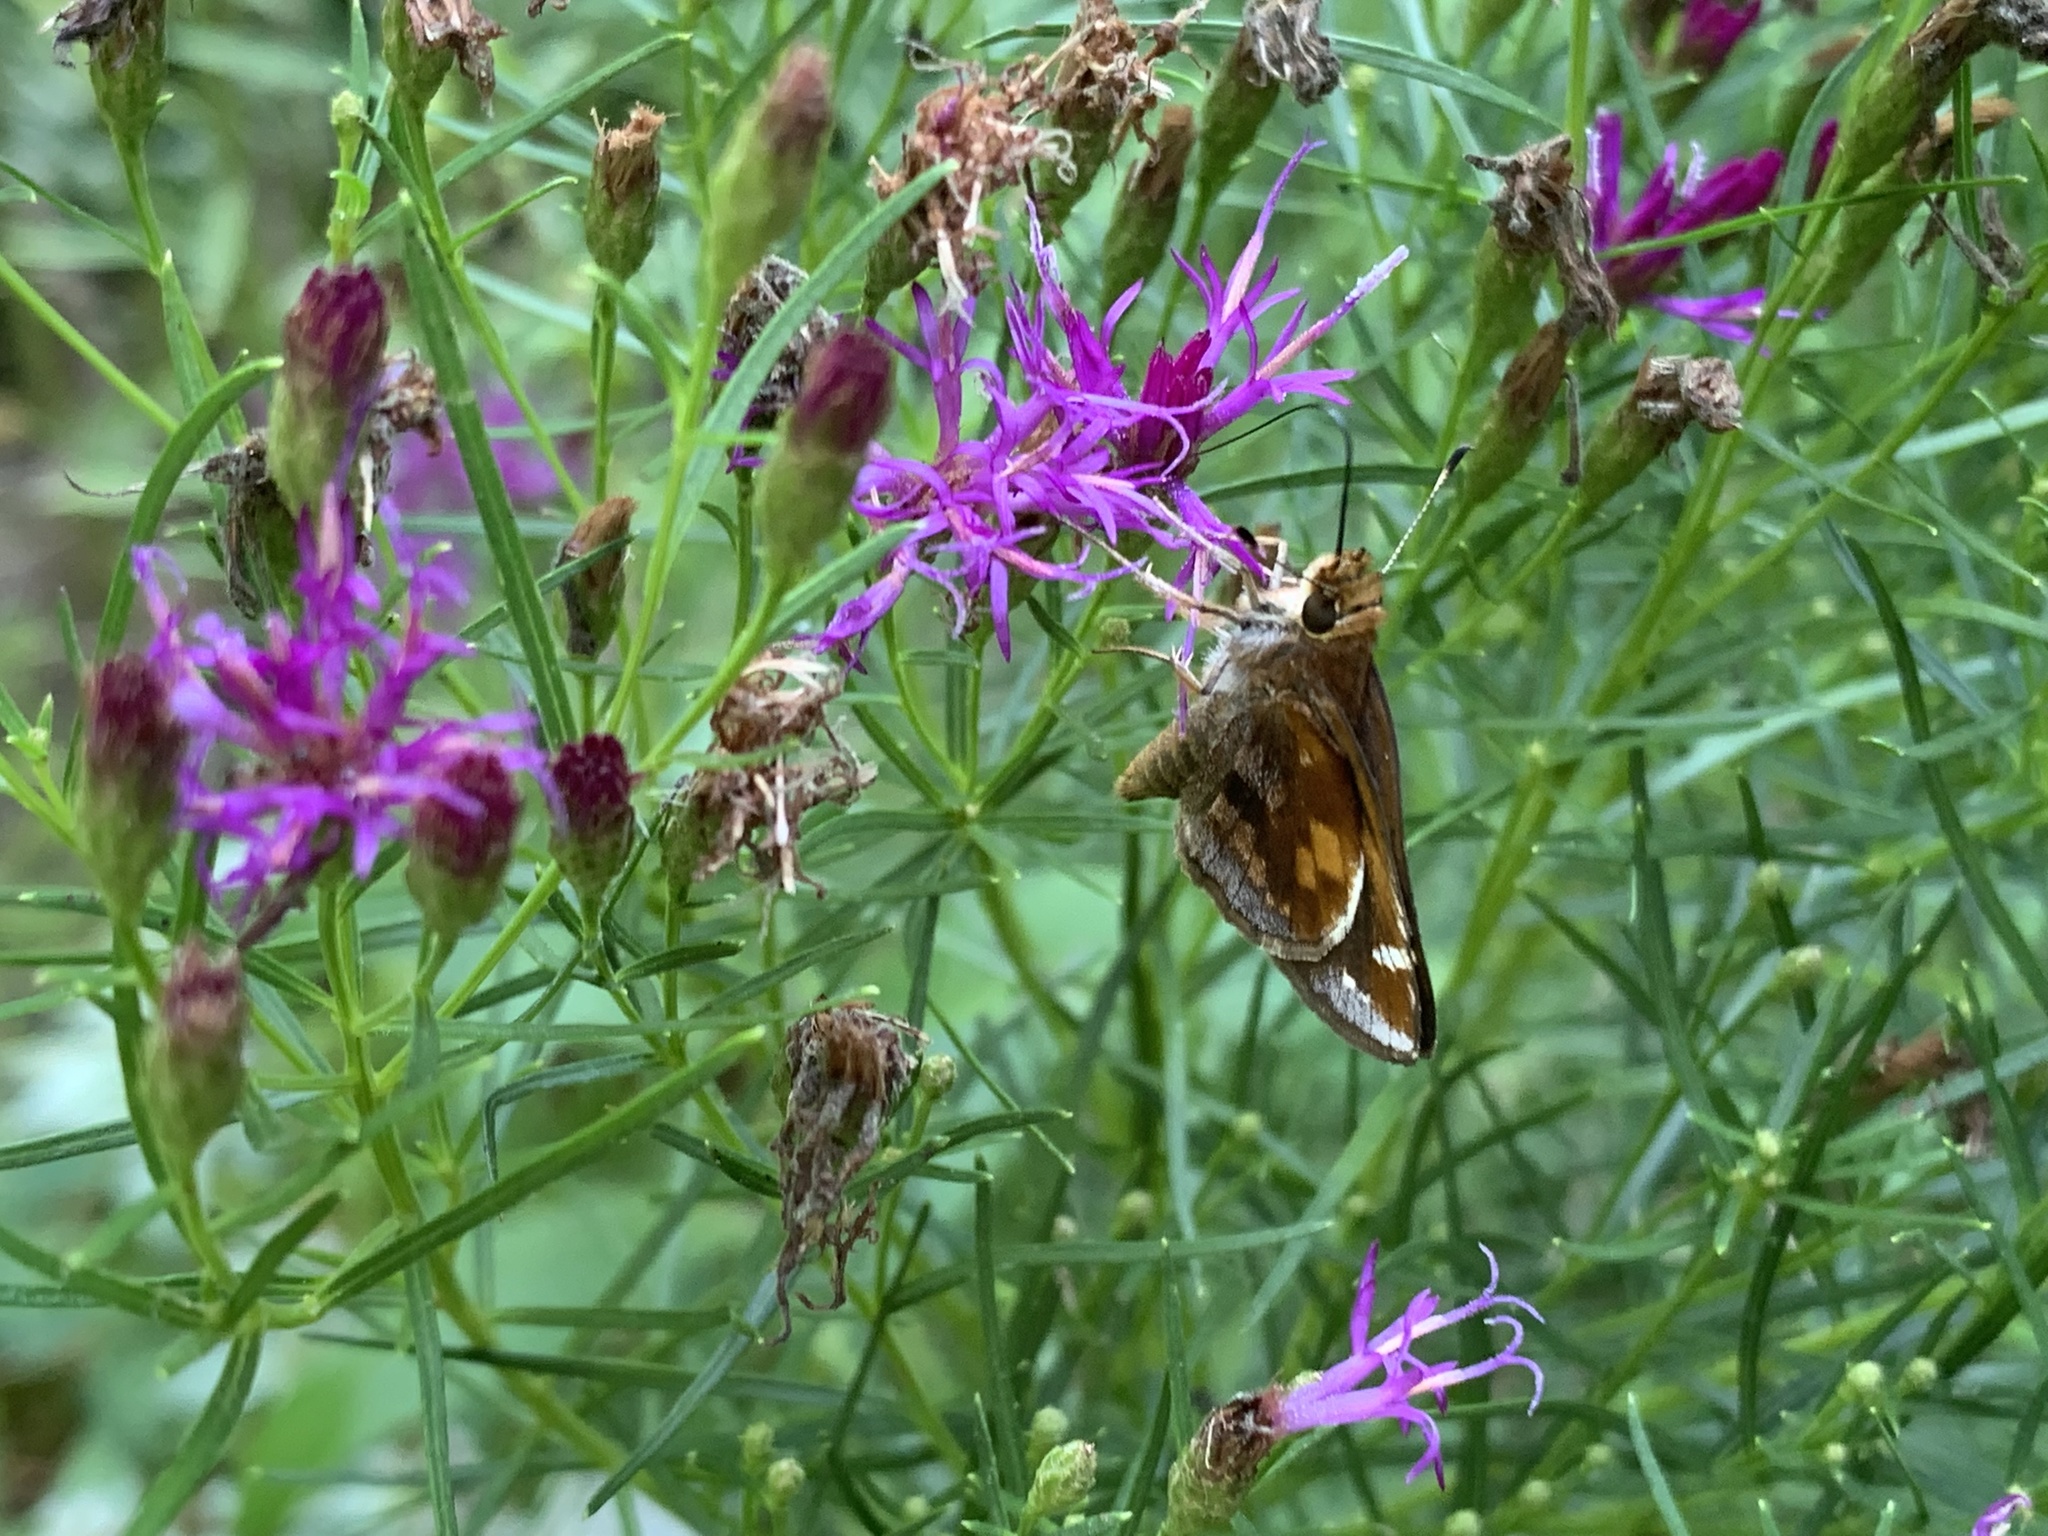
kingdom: Animalia
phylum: Arthropoda
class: Insecta
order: Lepidoptera
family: Hesperiidae
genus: Lon
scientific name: Lon zabulon
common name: Zabulon skipper
